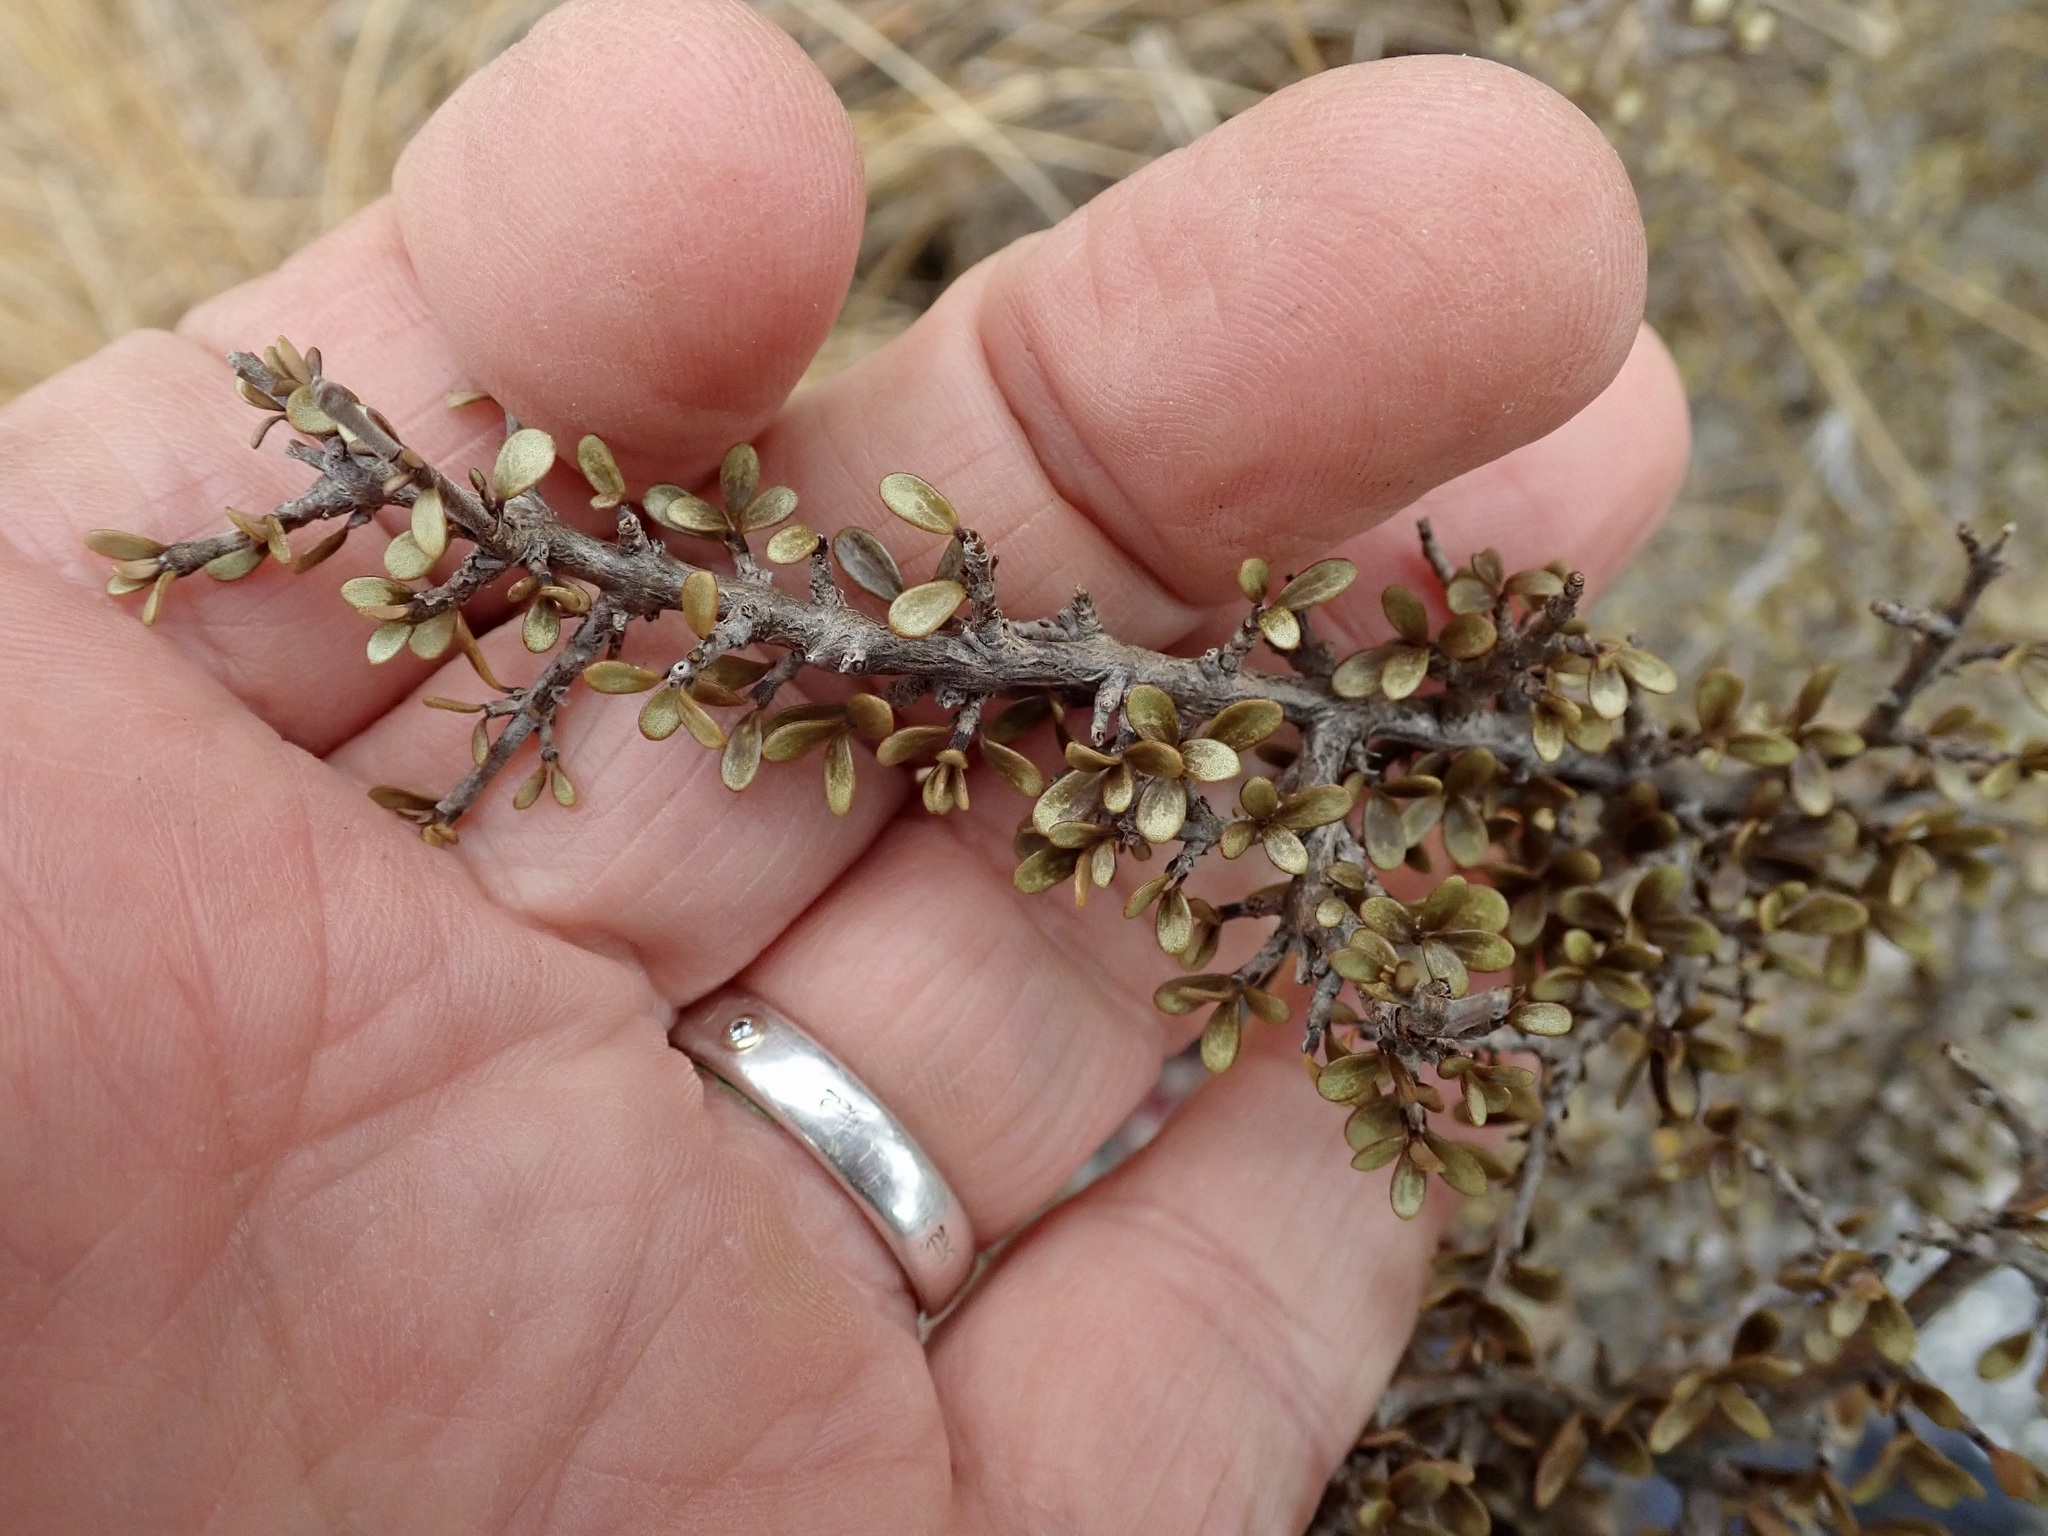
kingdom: Plantae
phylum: Tracheophyta
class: Magnoliopsida
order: Gentianales
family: Rubiaceae
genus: Coprosma
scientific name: Coprosma dumosa
